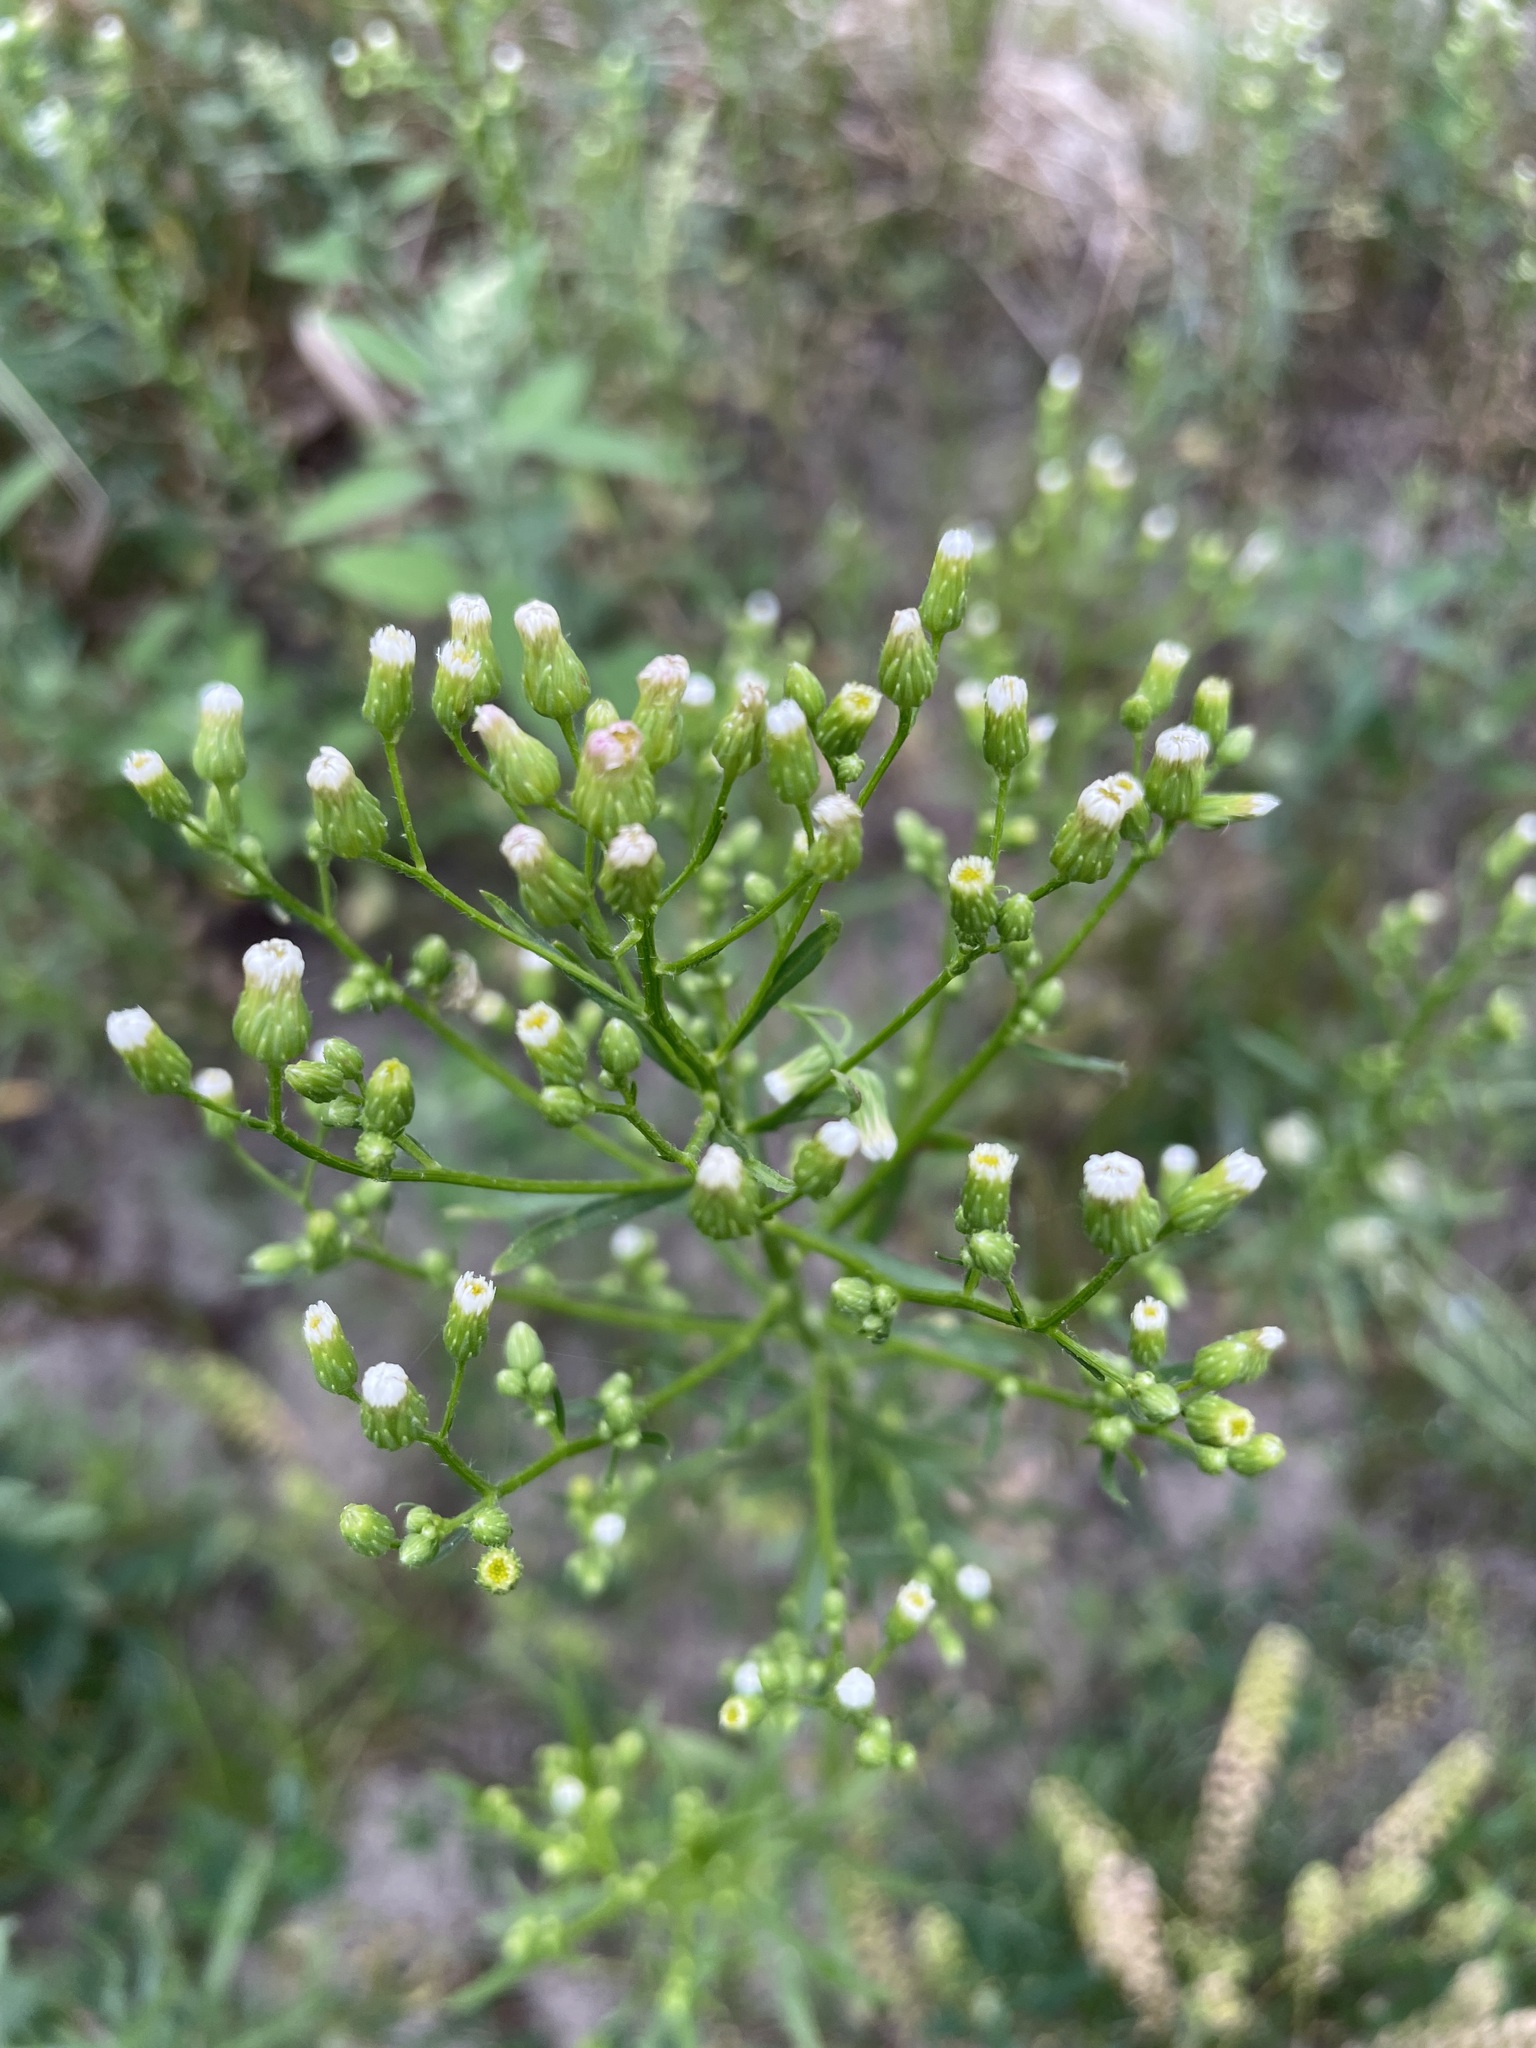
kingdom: Plantae
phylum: Tracheophyta
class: Magnoliopsida
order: Asterales
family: Asteraceae
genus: Erigeron
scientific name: Erigeron canadensis
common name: Canadian fleabane
